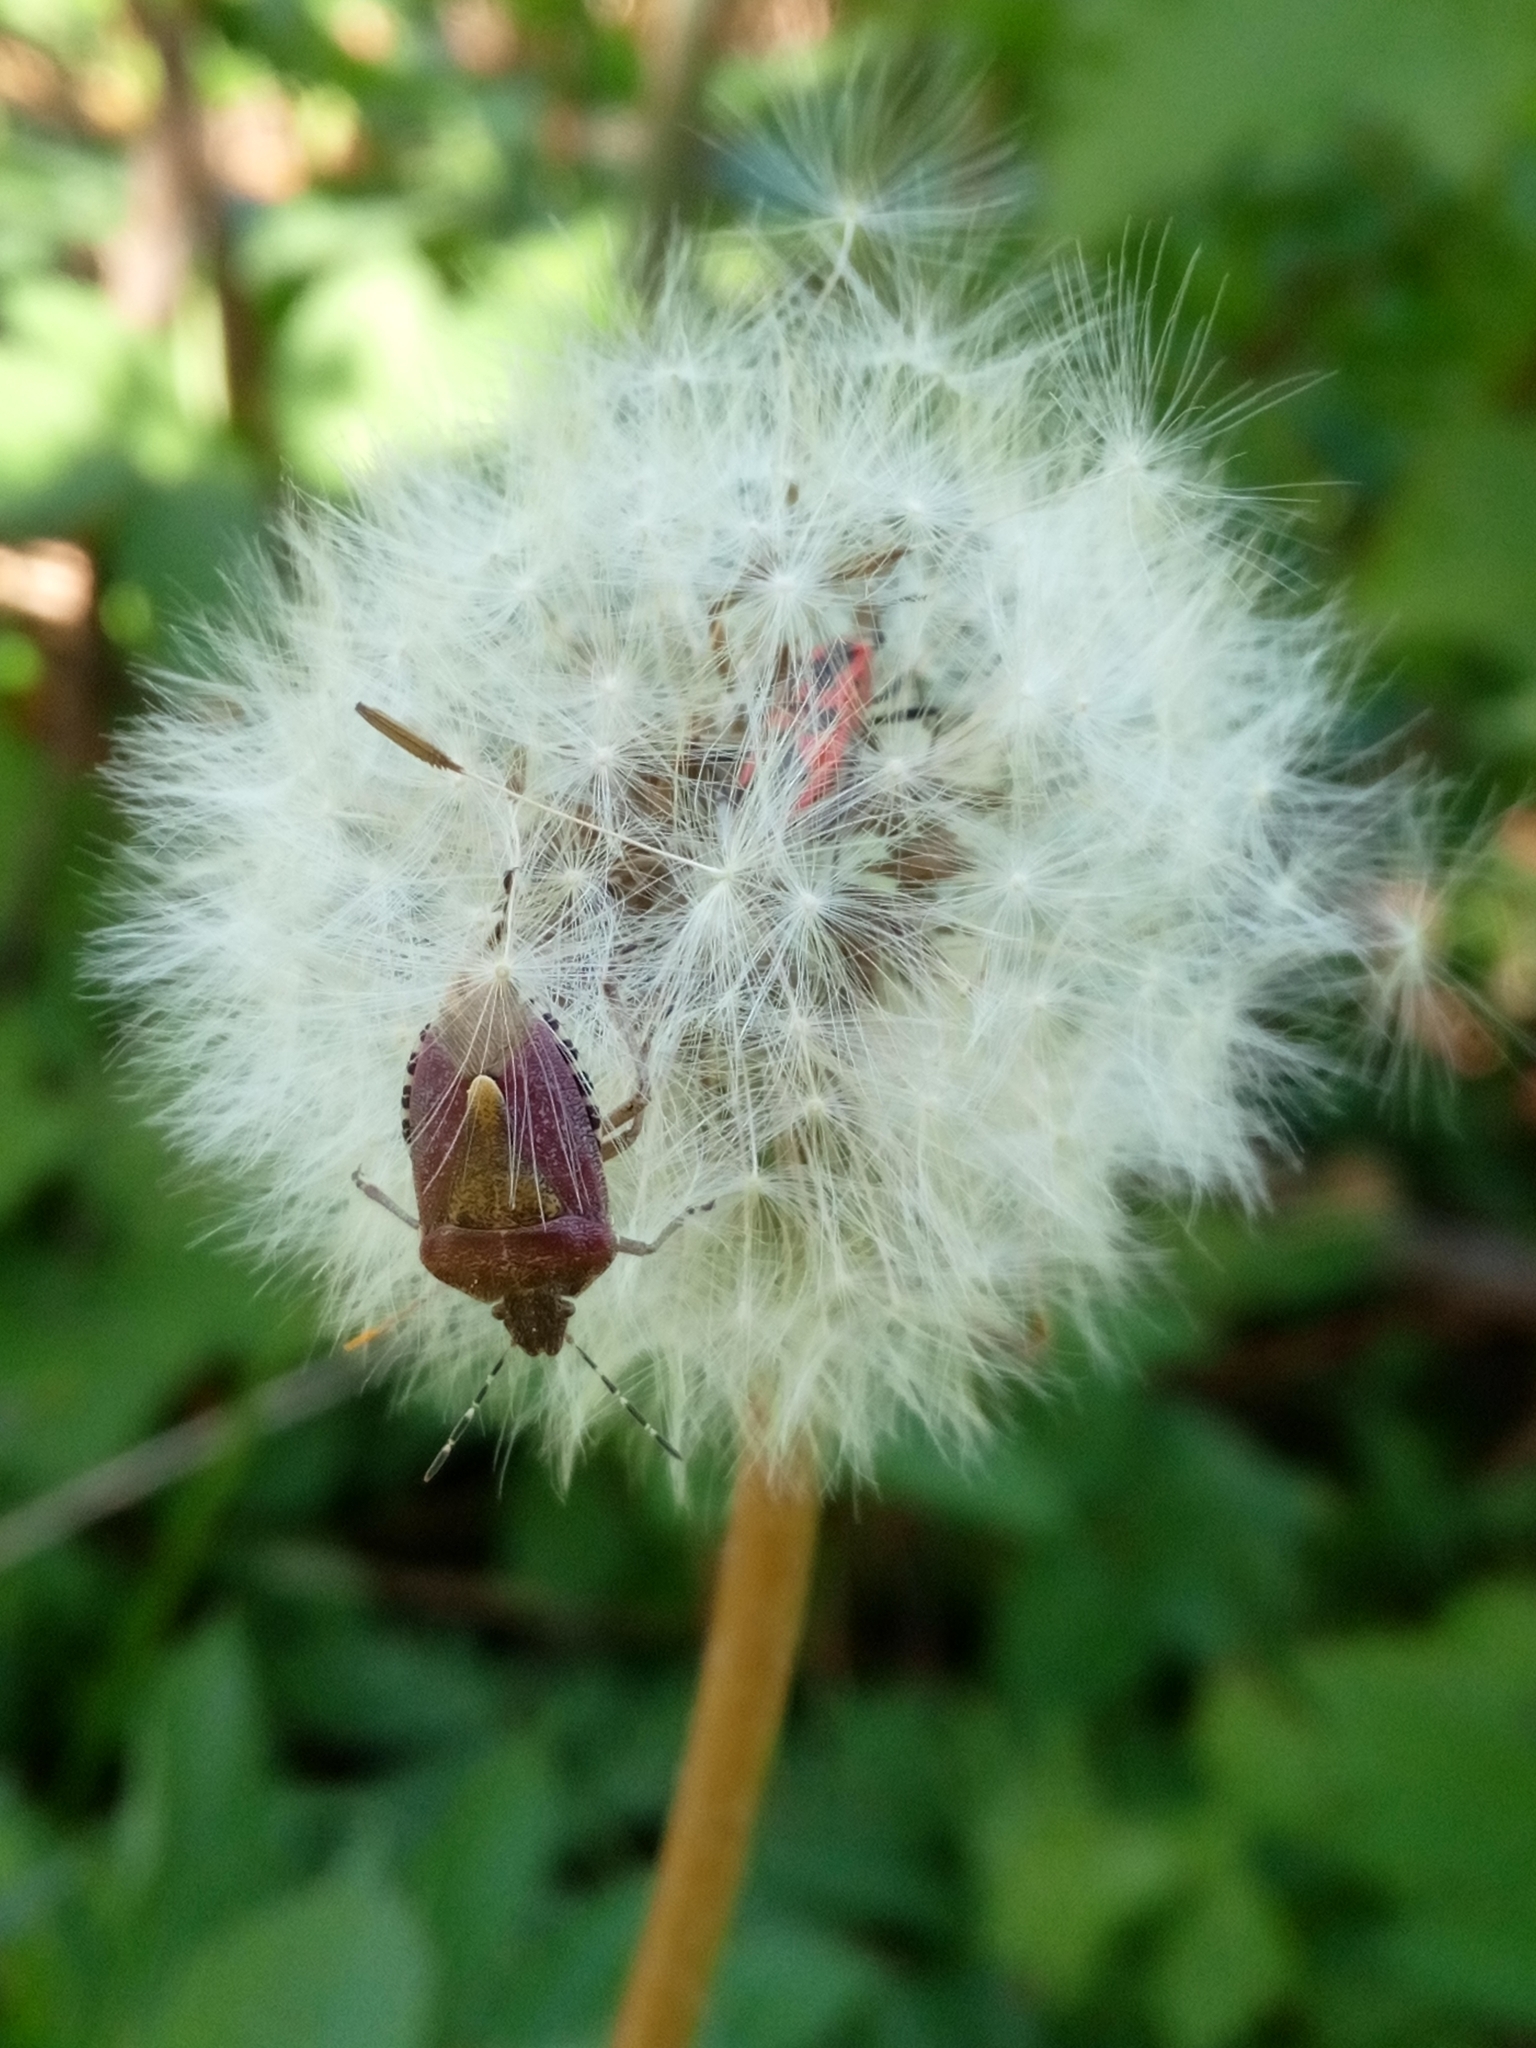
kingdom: Animalia
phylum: Arthropoda
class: Insecta
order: Hemiptera
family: Pentatomidae
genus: Dolycoris
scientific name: Dolycoris baccarum
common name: Sloe bug
